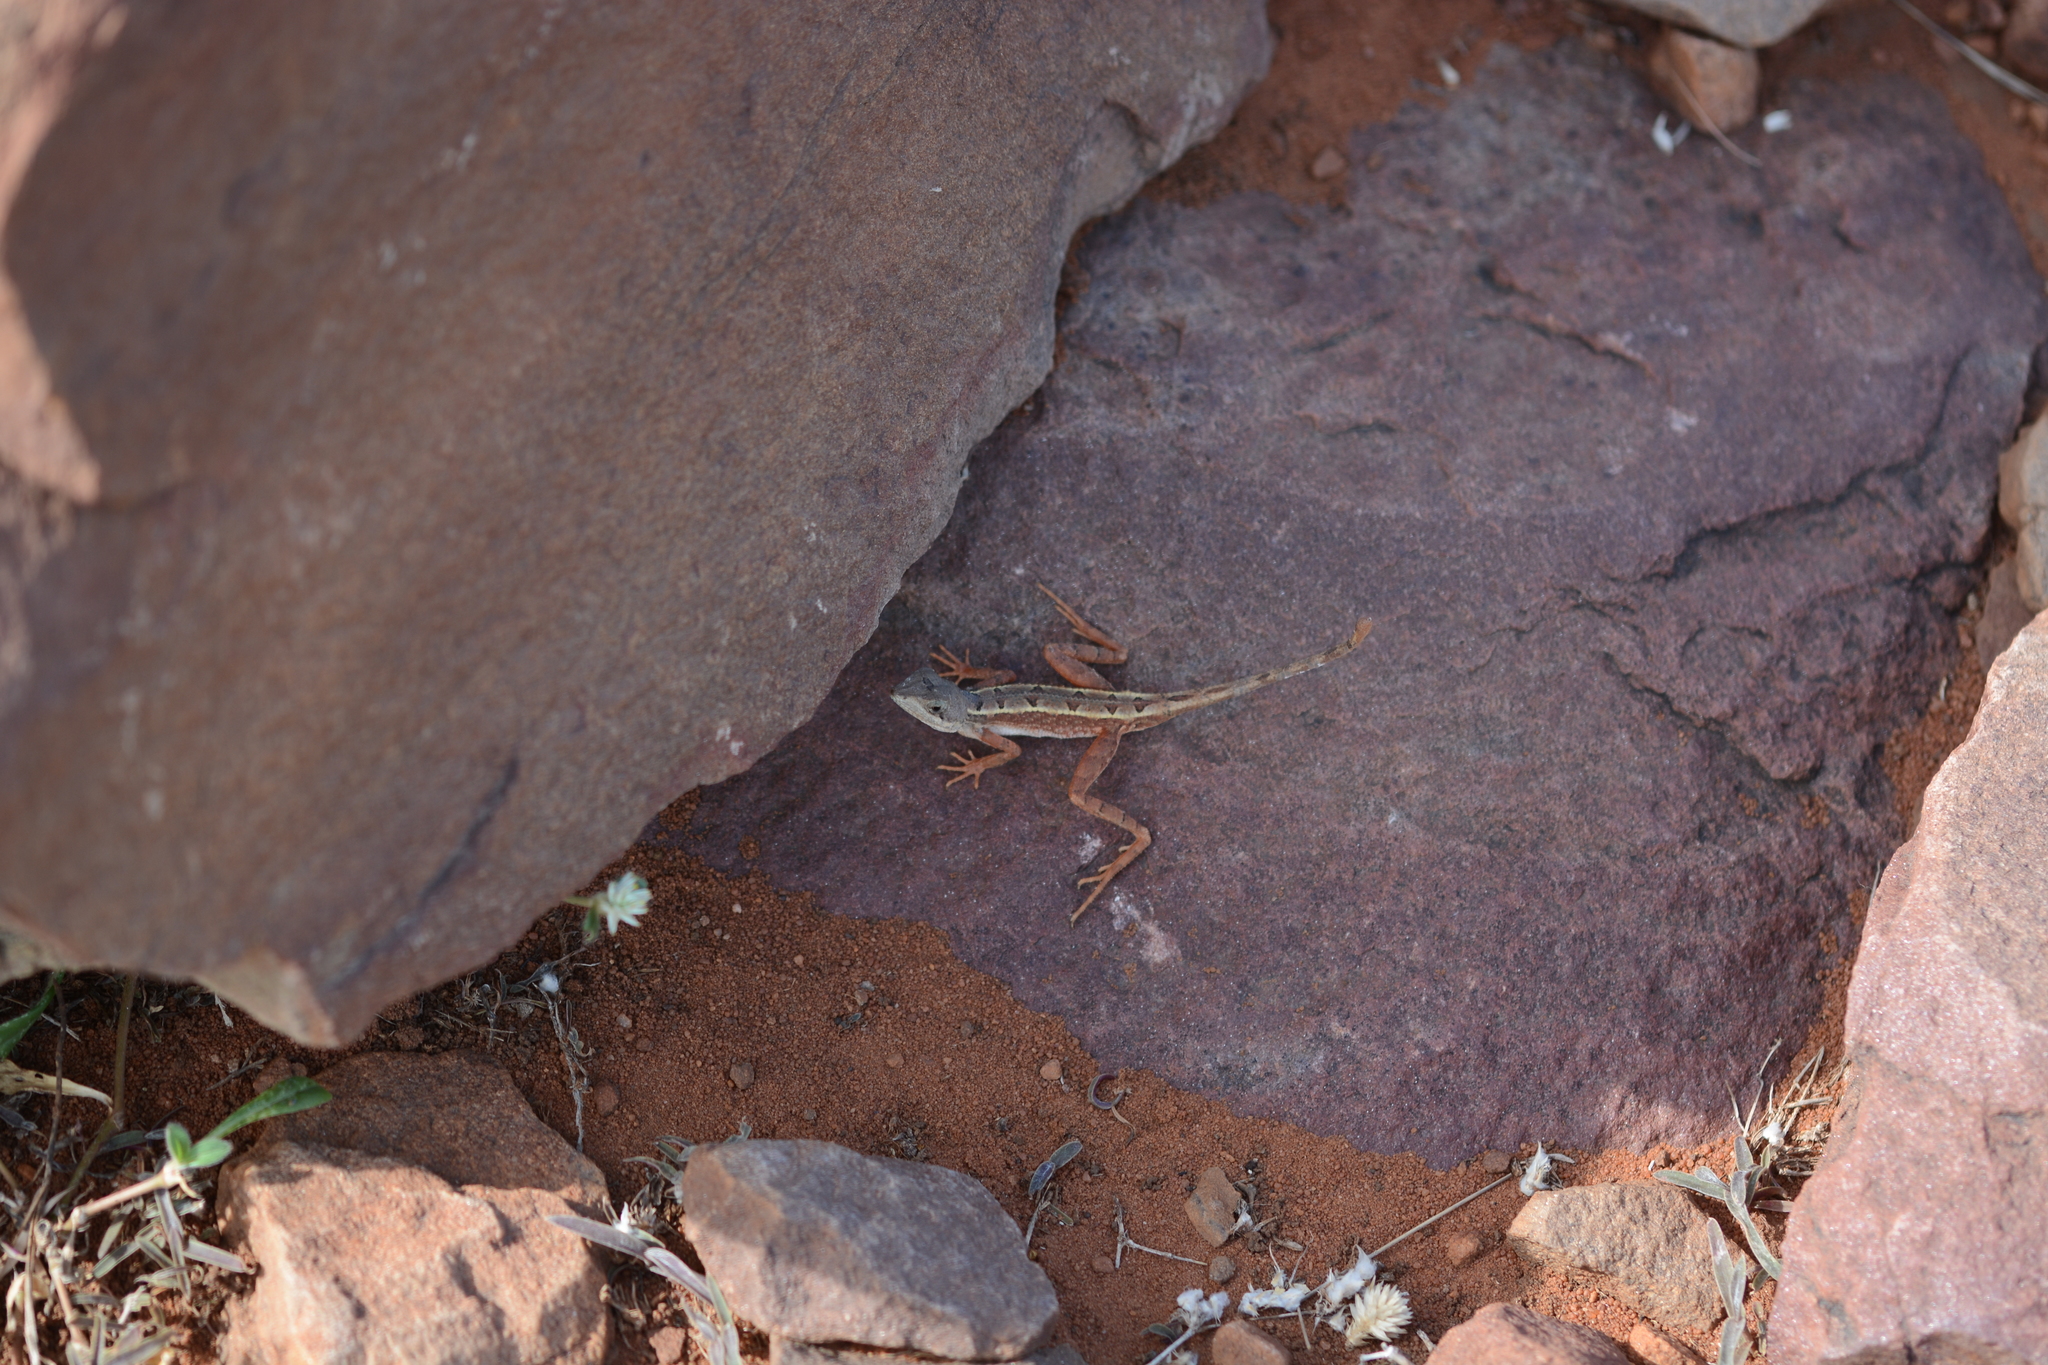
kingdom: Animalia
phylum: Chordata
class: Squamata
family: Agamidae
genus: Sitana
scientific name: Sitana gokakensis
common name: Gokak fan-throated lizard
